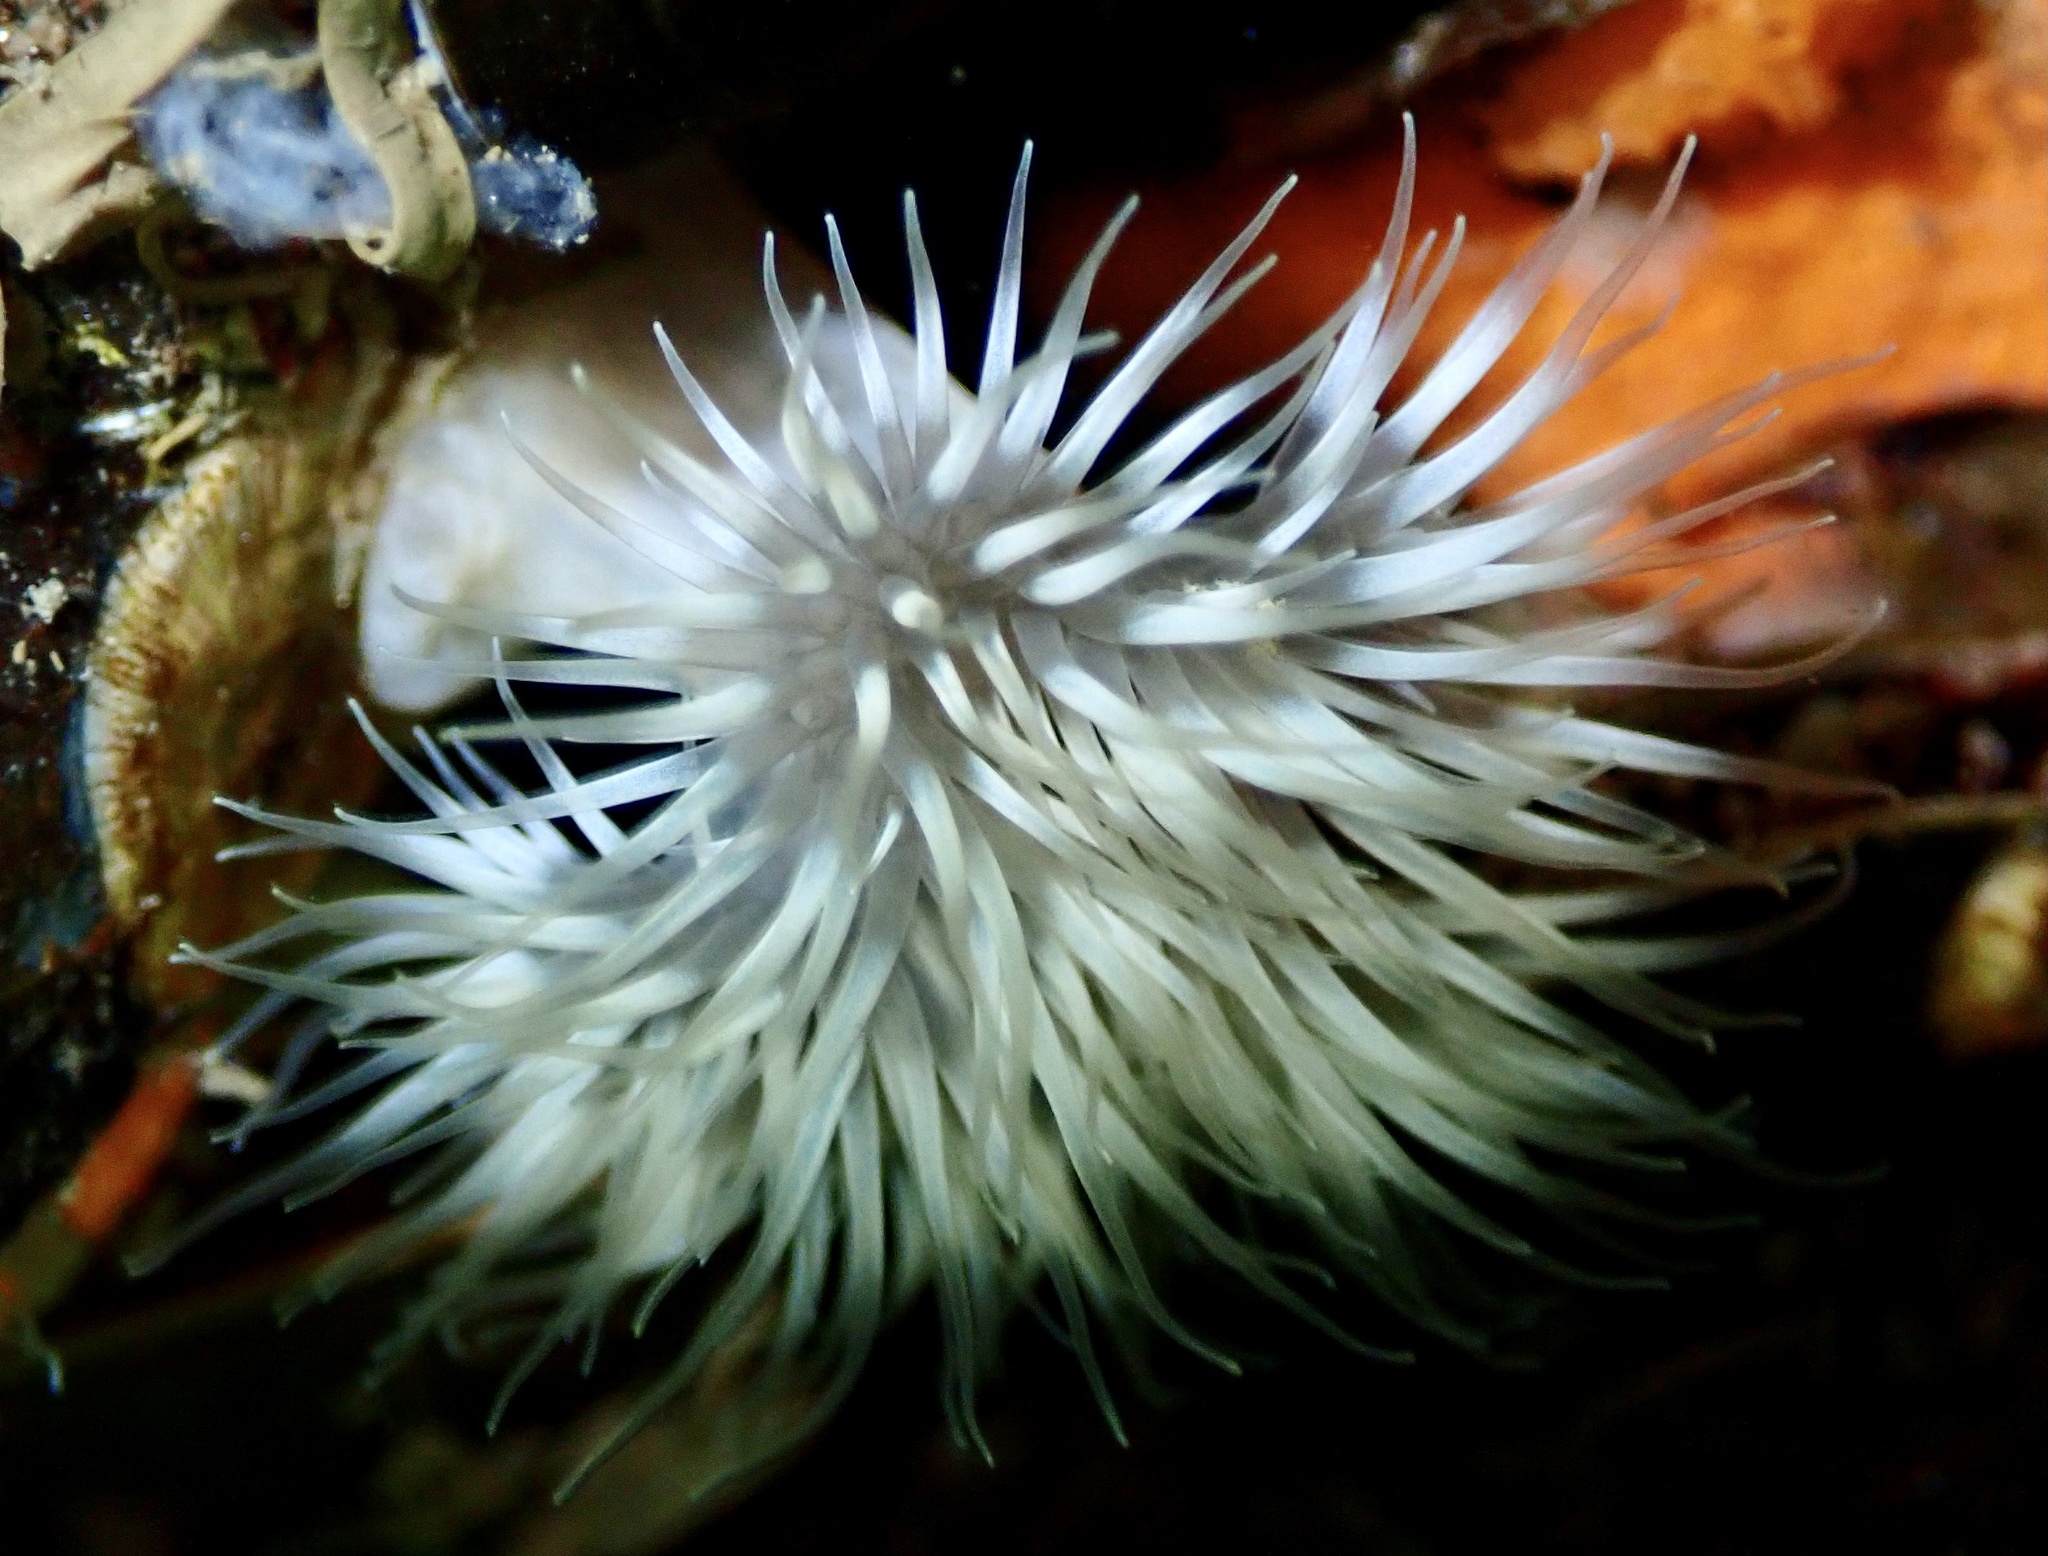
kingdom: Animalia
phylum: Cnidaria
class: Anthozoa
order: Actiniaria
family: Metridiidae
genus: Metridium
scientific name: Metridium senile
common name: Clonal plumose anemone
